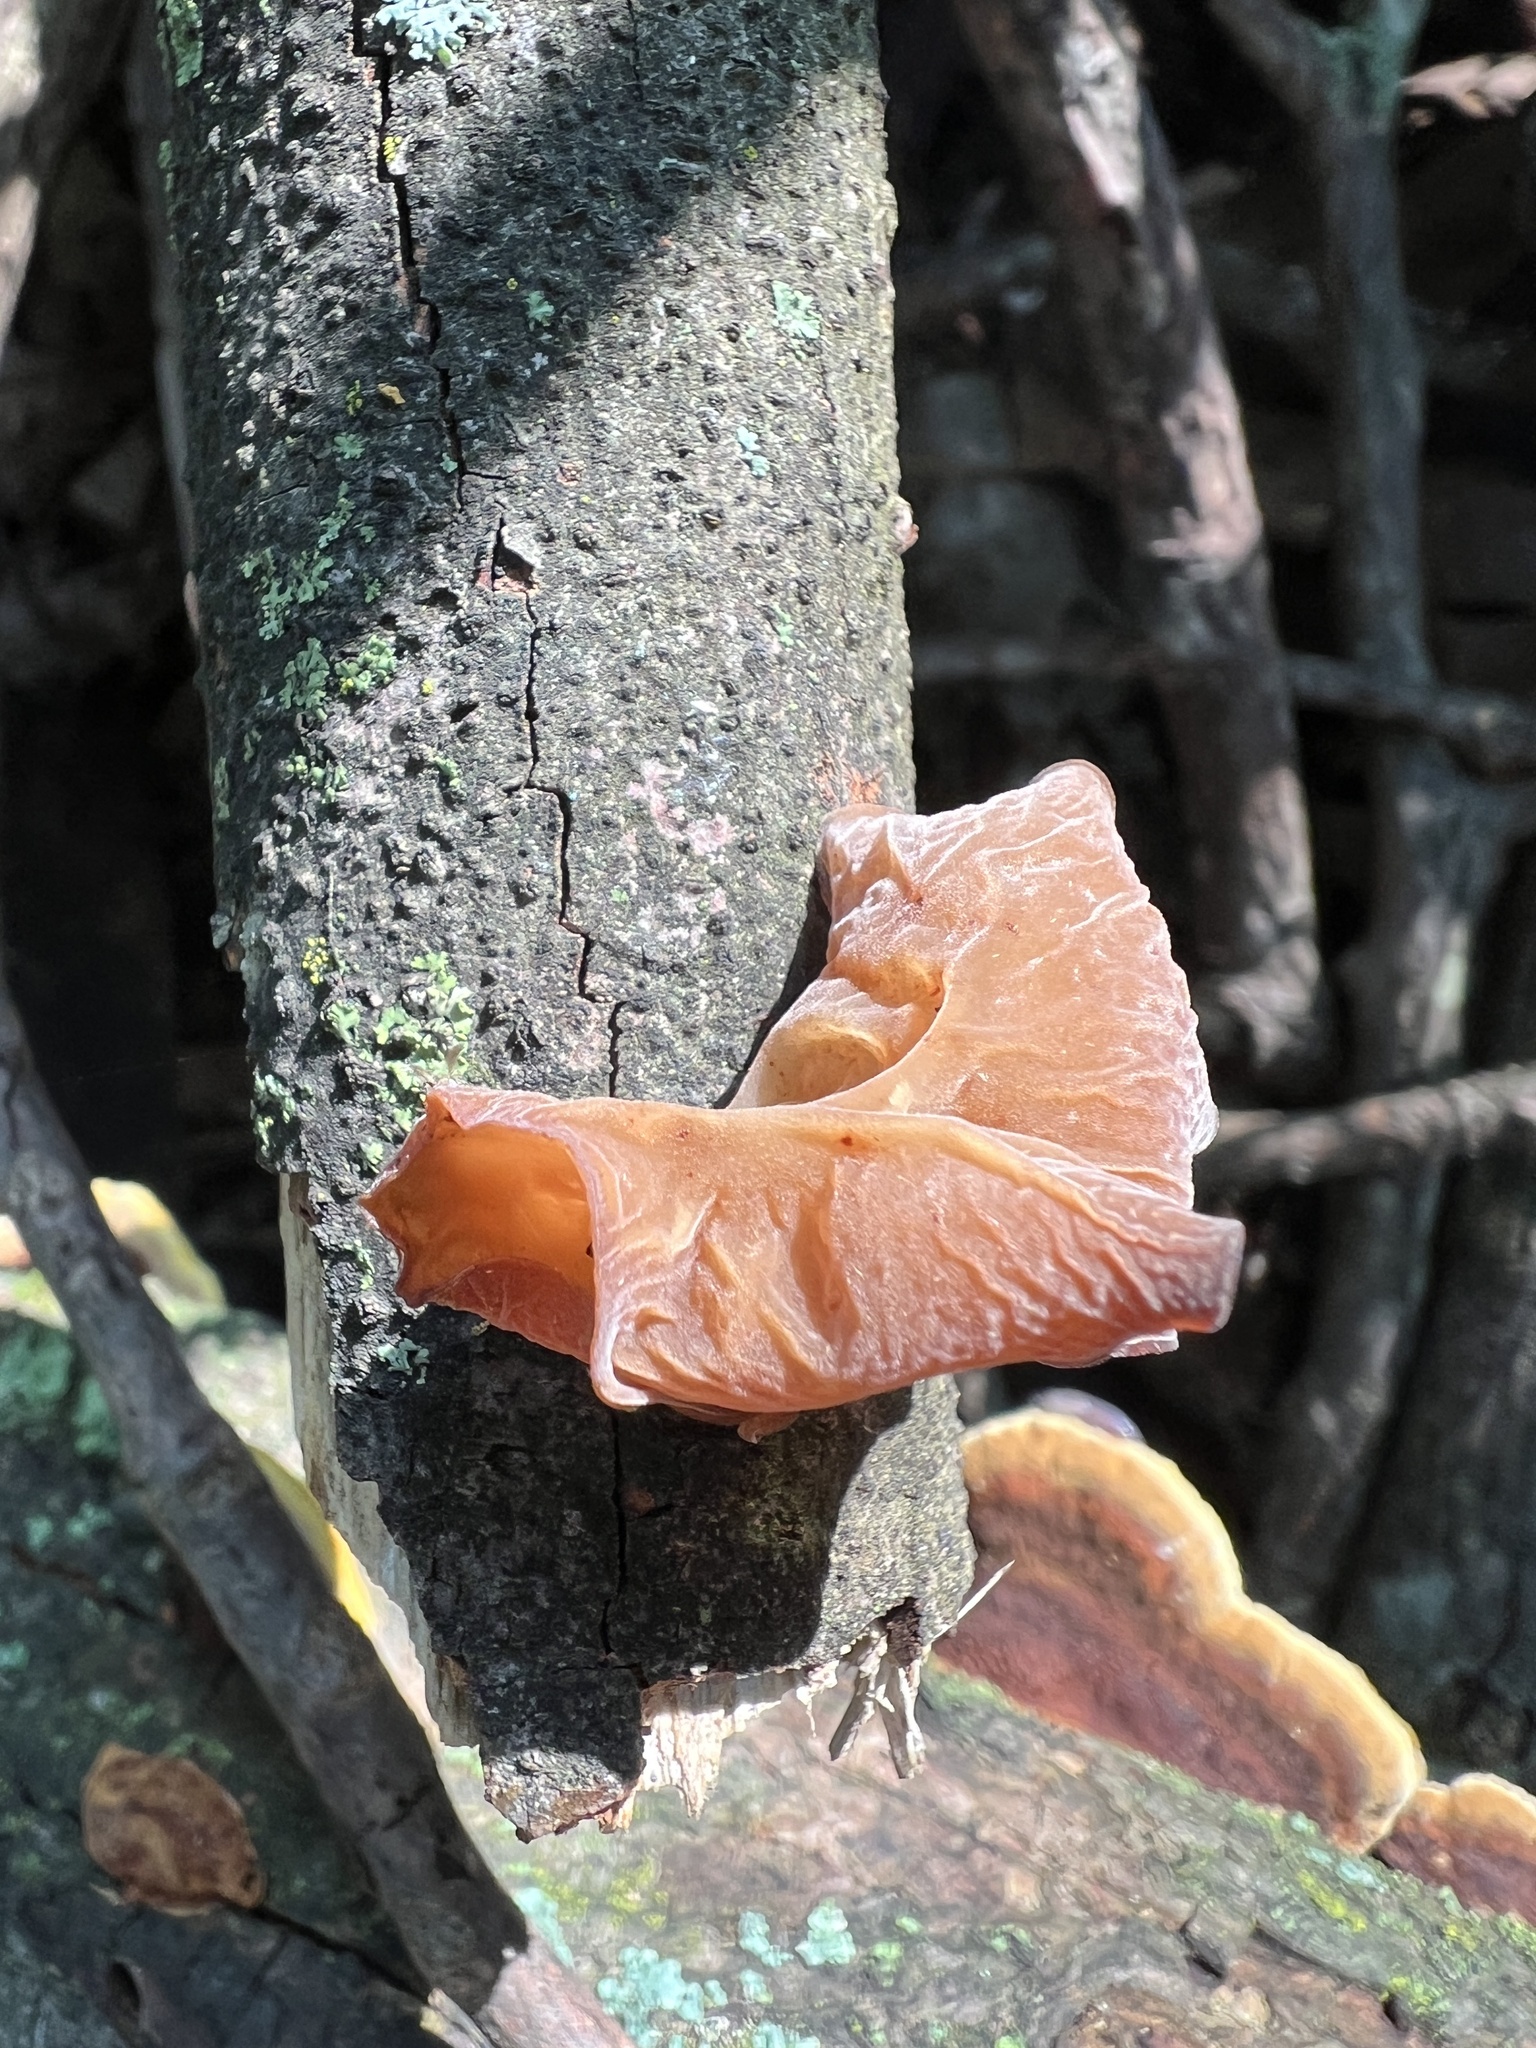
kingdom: Fungi
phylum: Basidiomycota
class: Agaricomycetes
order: Auriculariales
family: Auriculariaceae
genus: Auricularia
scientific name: Auricularia fuscosuccinea
